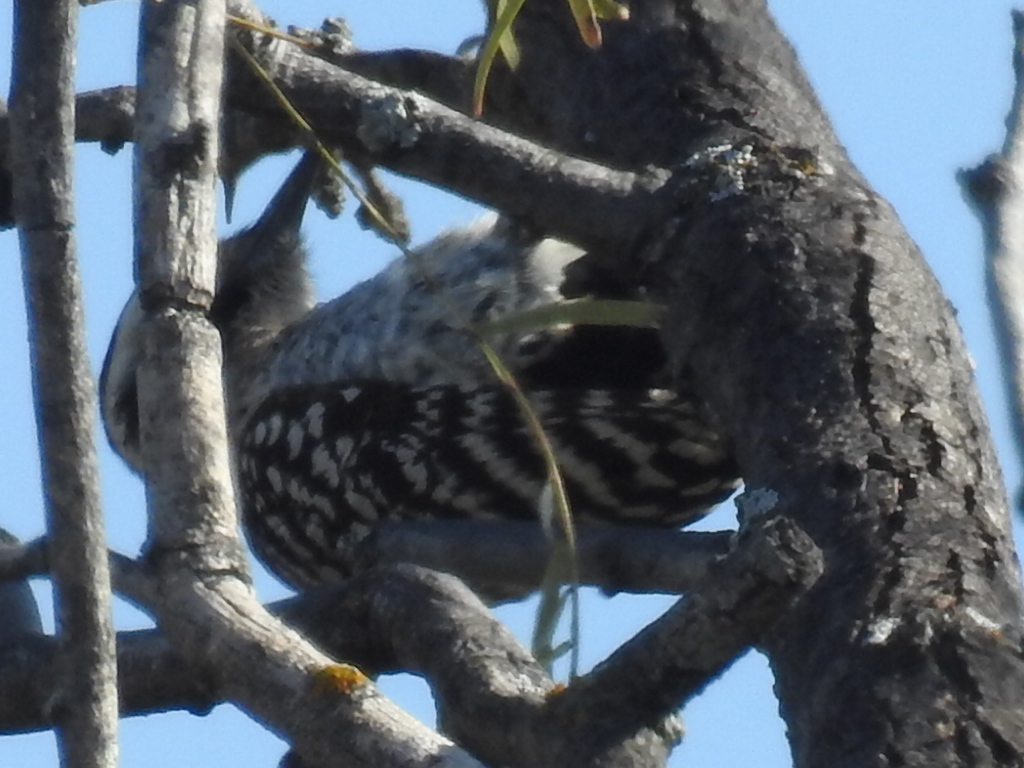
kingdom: Animalia
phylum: Chordata
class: Aves
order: Piciformes
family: Picidae
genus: Dryobates
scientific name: Dryobates scalaris
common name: Ladder-backed woodpecker
